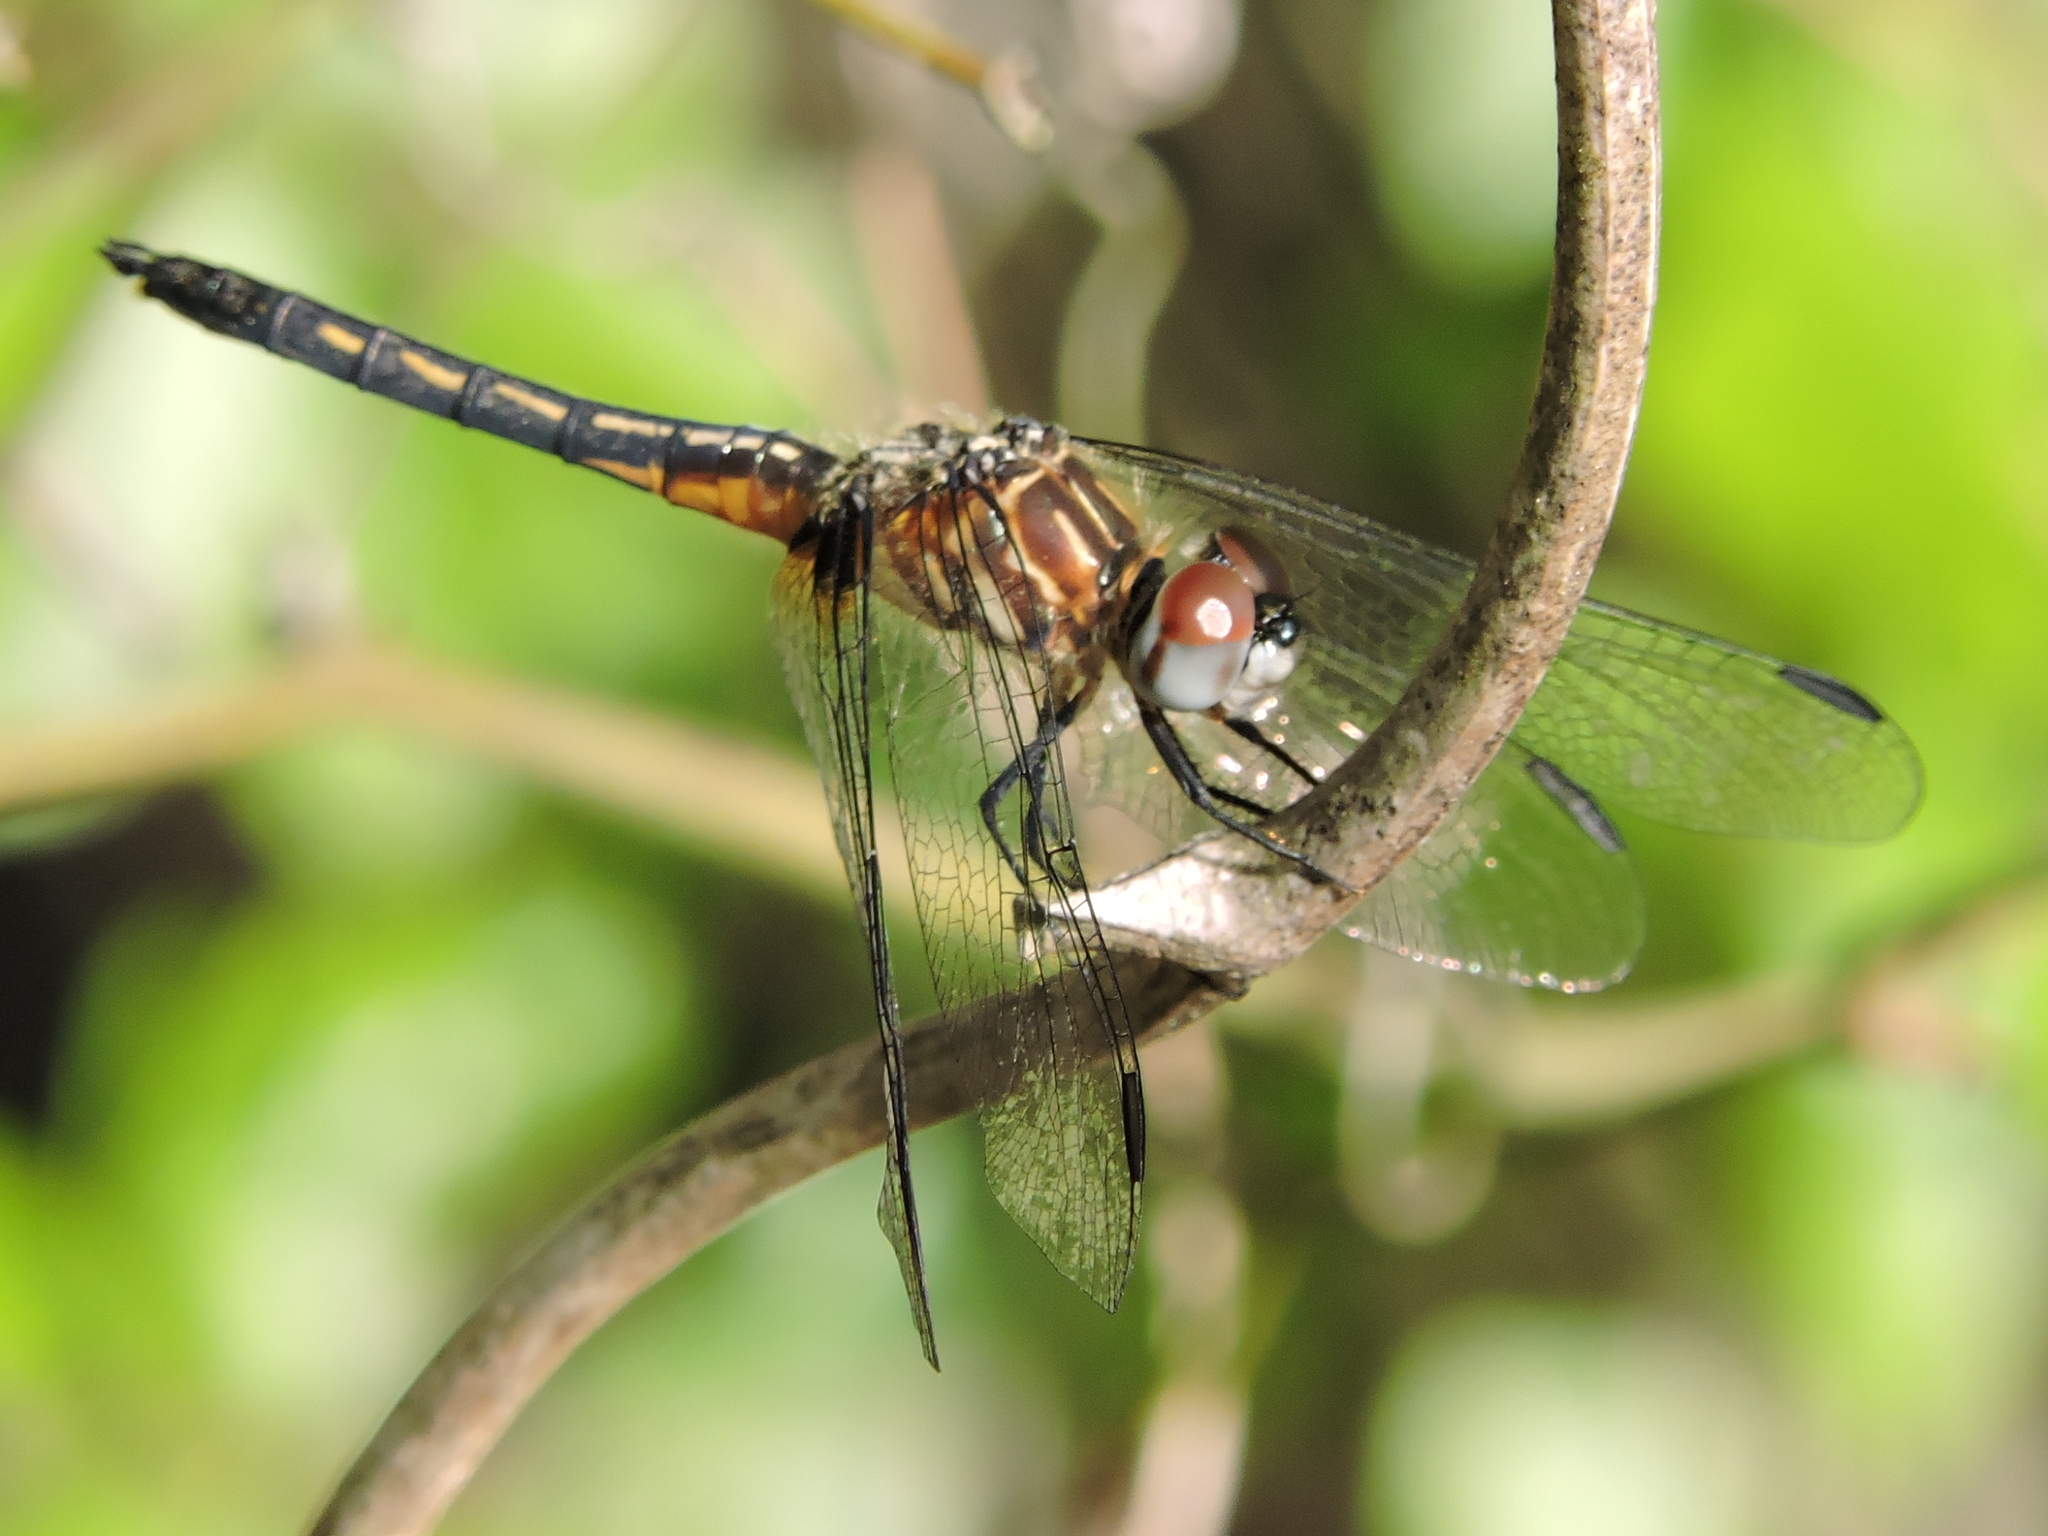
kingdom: Animalia
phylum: Arthropoda
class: Insecta
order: Odonata
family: Libellulidae
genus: Pachydiplax
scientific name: Pachydiplax longipennis
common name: Blue dasher
